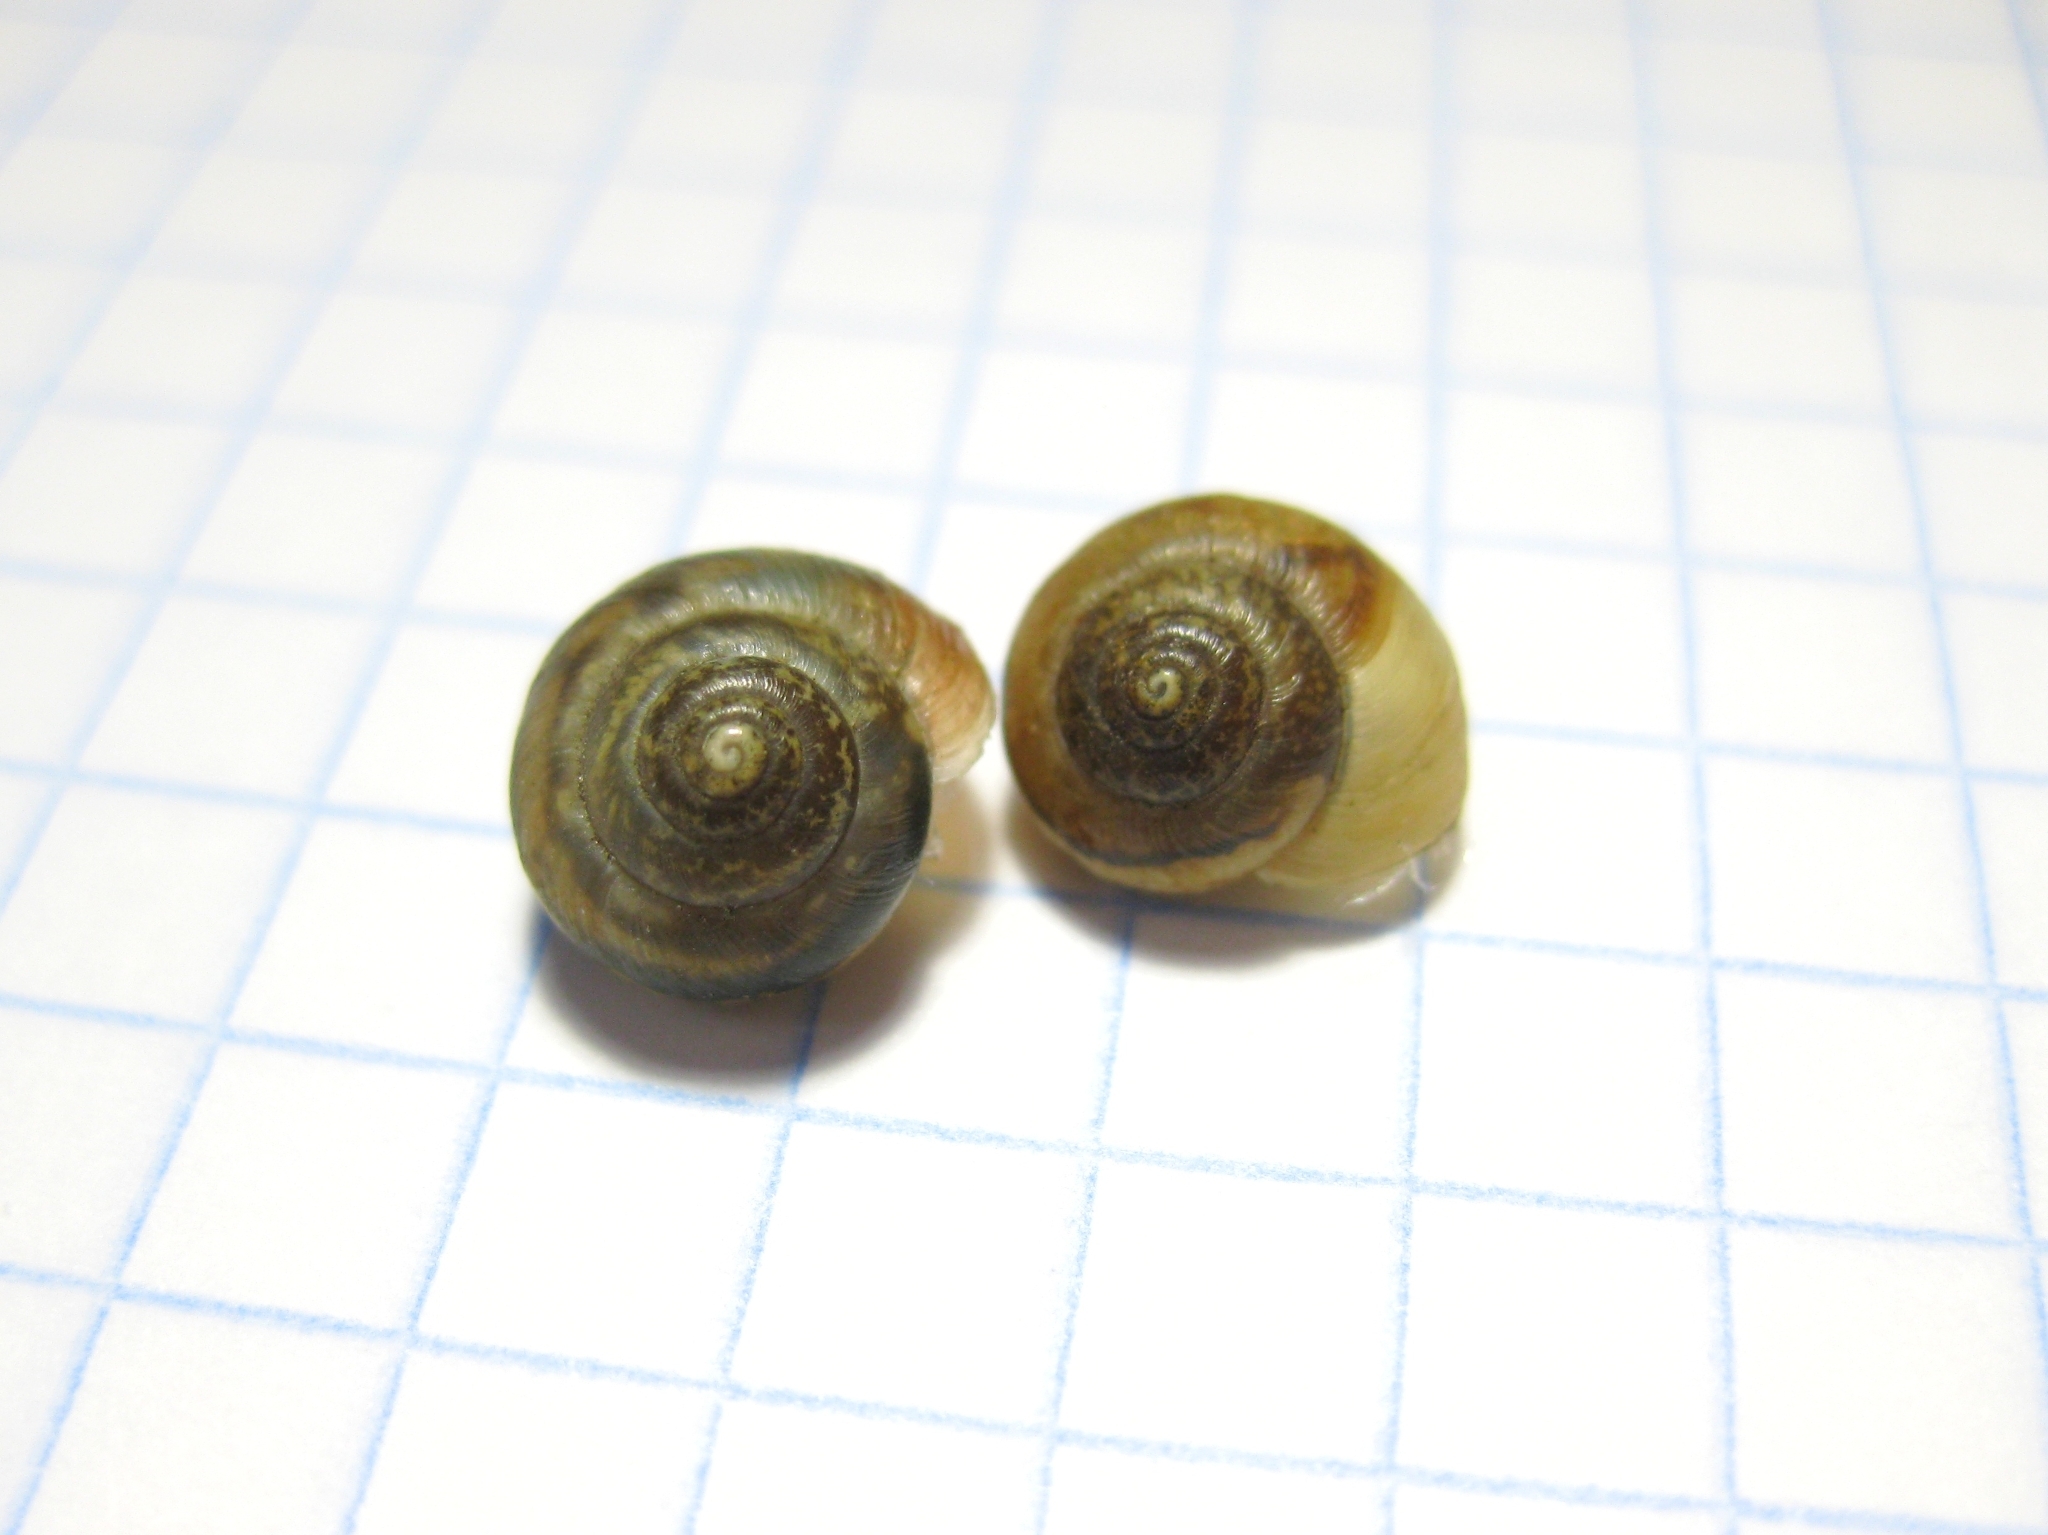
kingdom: Animalia
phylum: Mollusca
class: Gastropoda
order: Stylommatophora
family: Hygromiidae
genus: Stenomphalia
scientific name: Stenomphalia selecta
